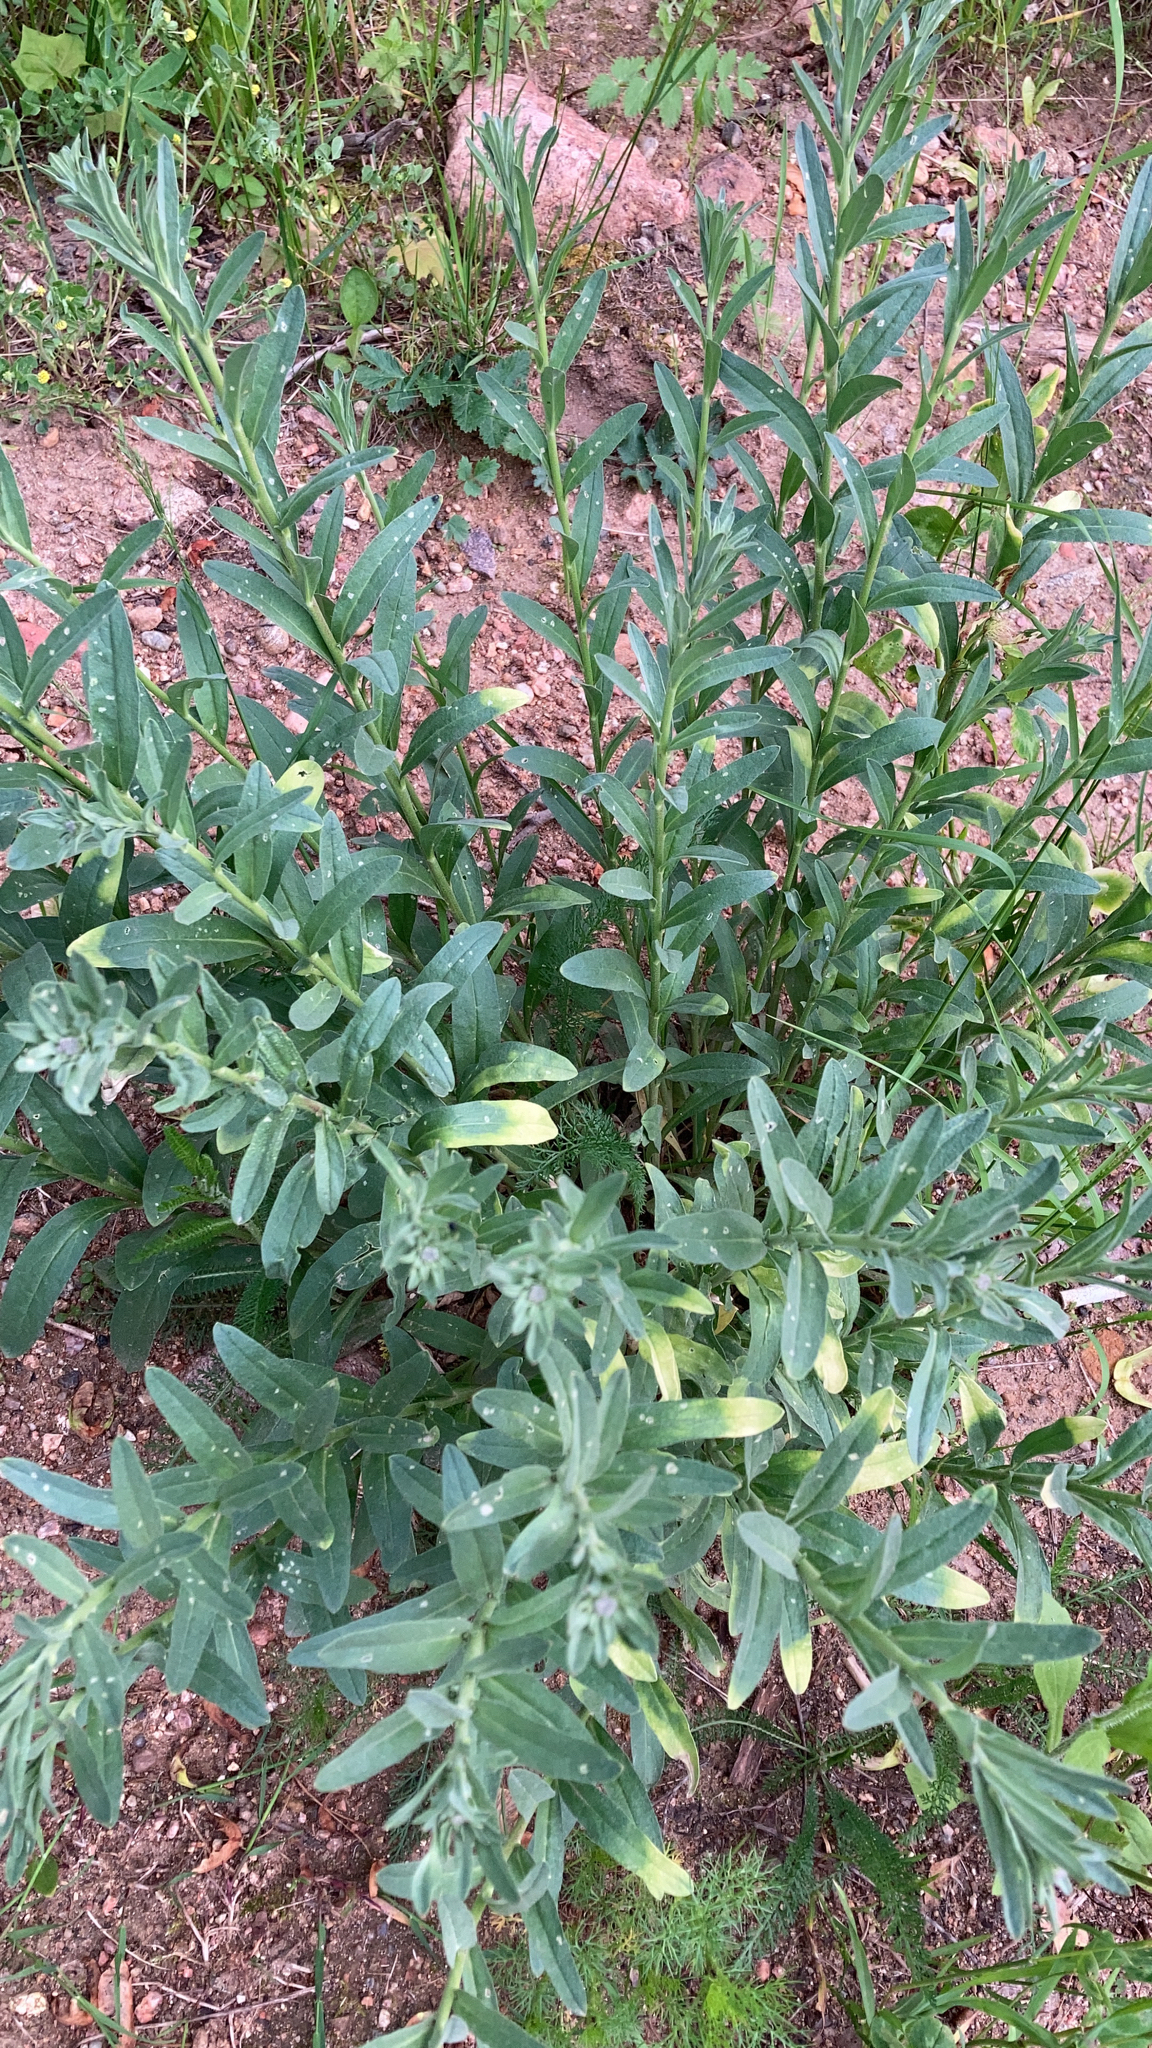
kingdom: Plantae
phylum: Tracheophyta
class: Magnoliopsida
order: Brassicales
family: Brassicaceae
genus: Berteroa
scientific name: Berteroa incana
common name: Hoary alison
